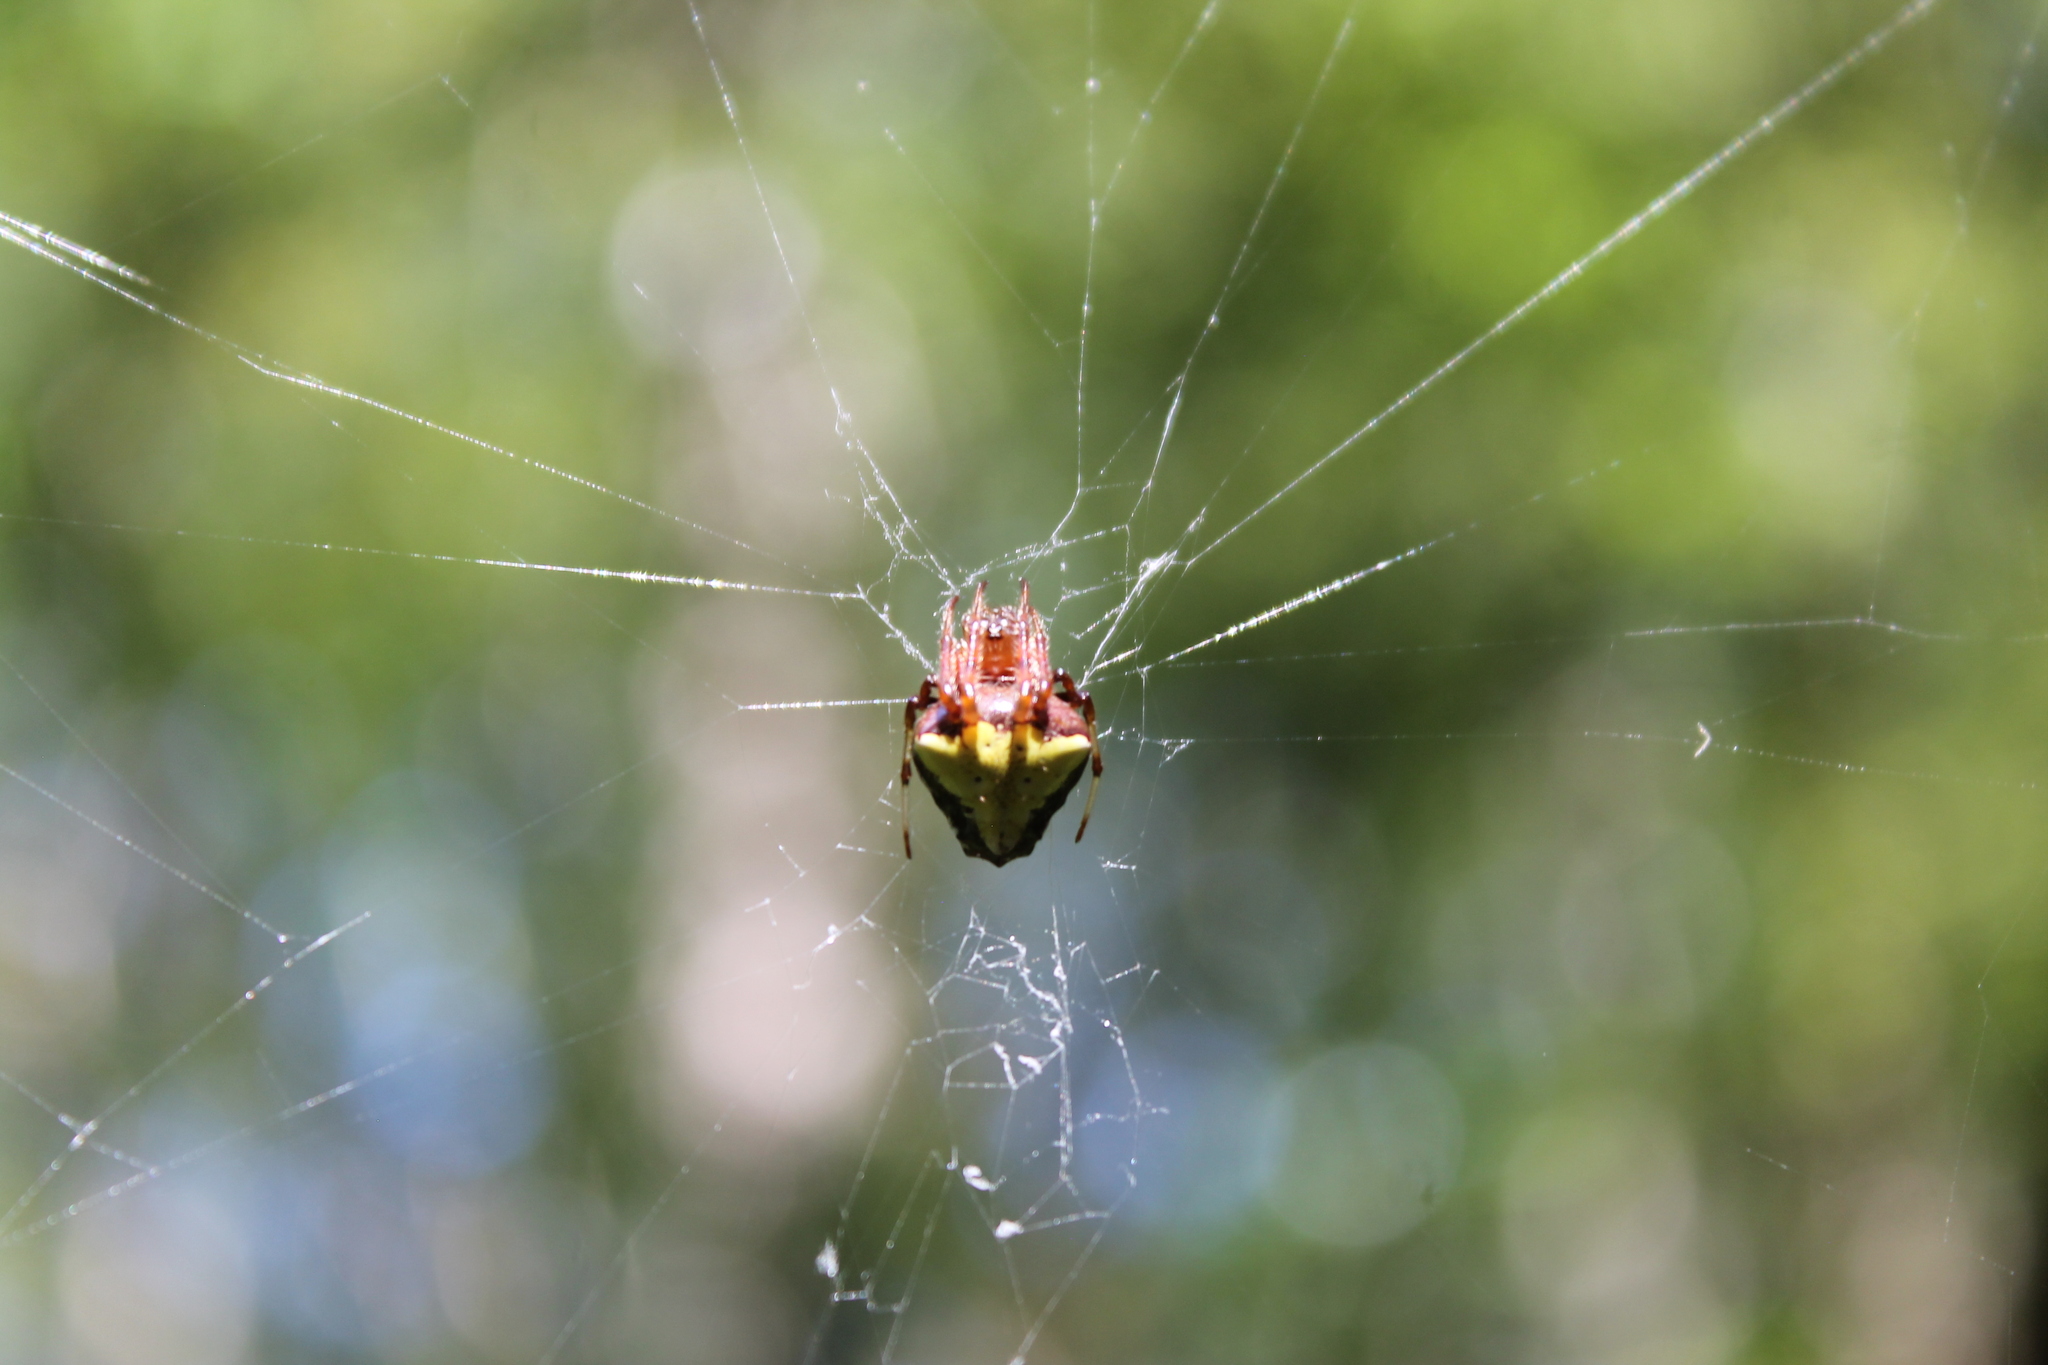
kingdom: Animalia
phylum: Arthropoda
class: Arachnida
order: Araneae
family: Araneidae
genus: Verrucosa
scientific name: Verrucosa arenata
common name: Orb weavers
